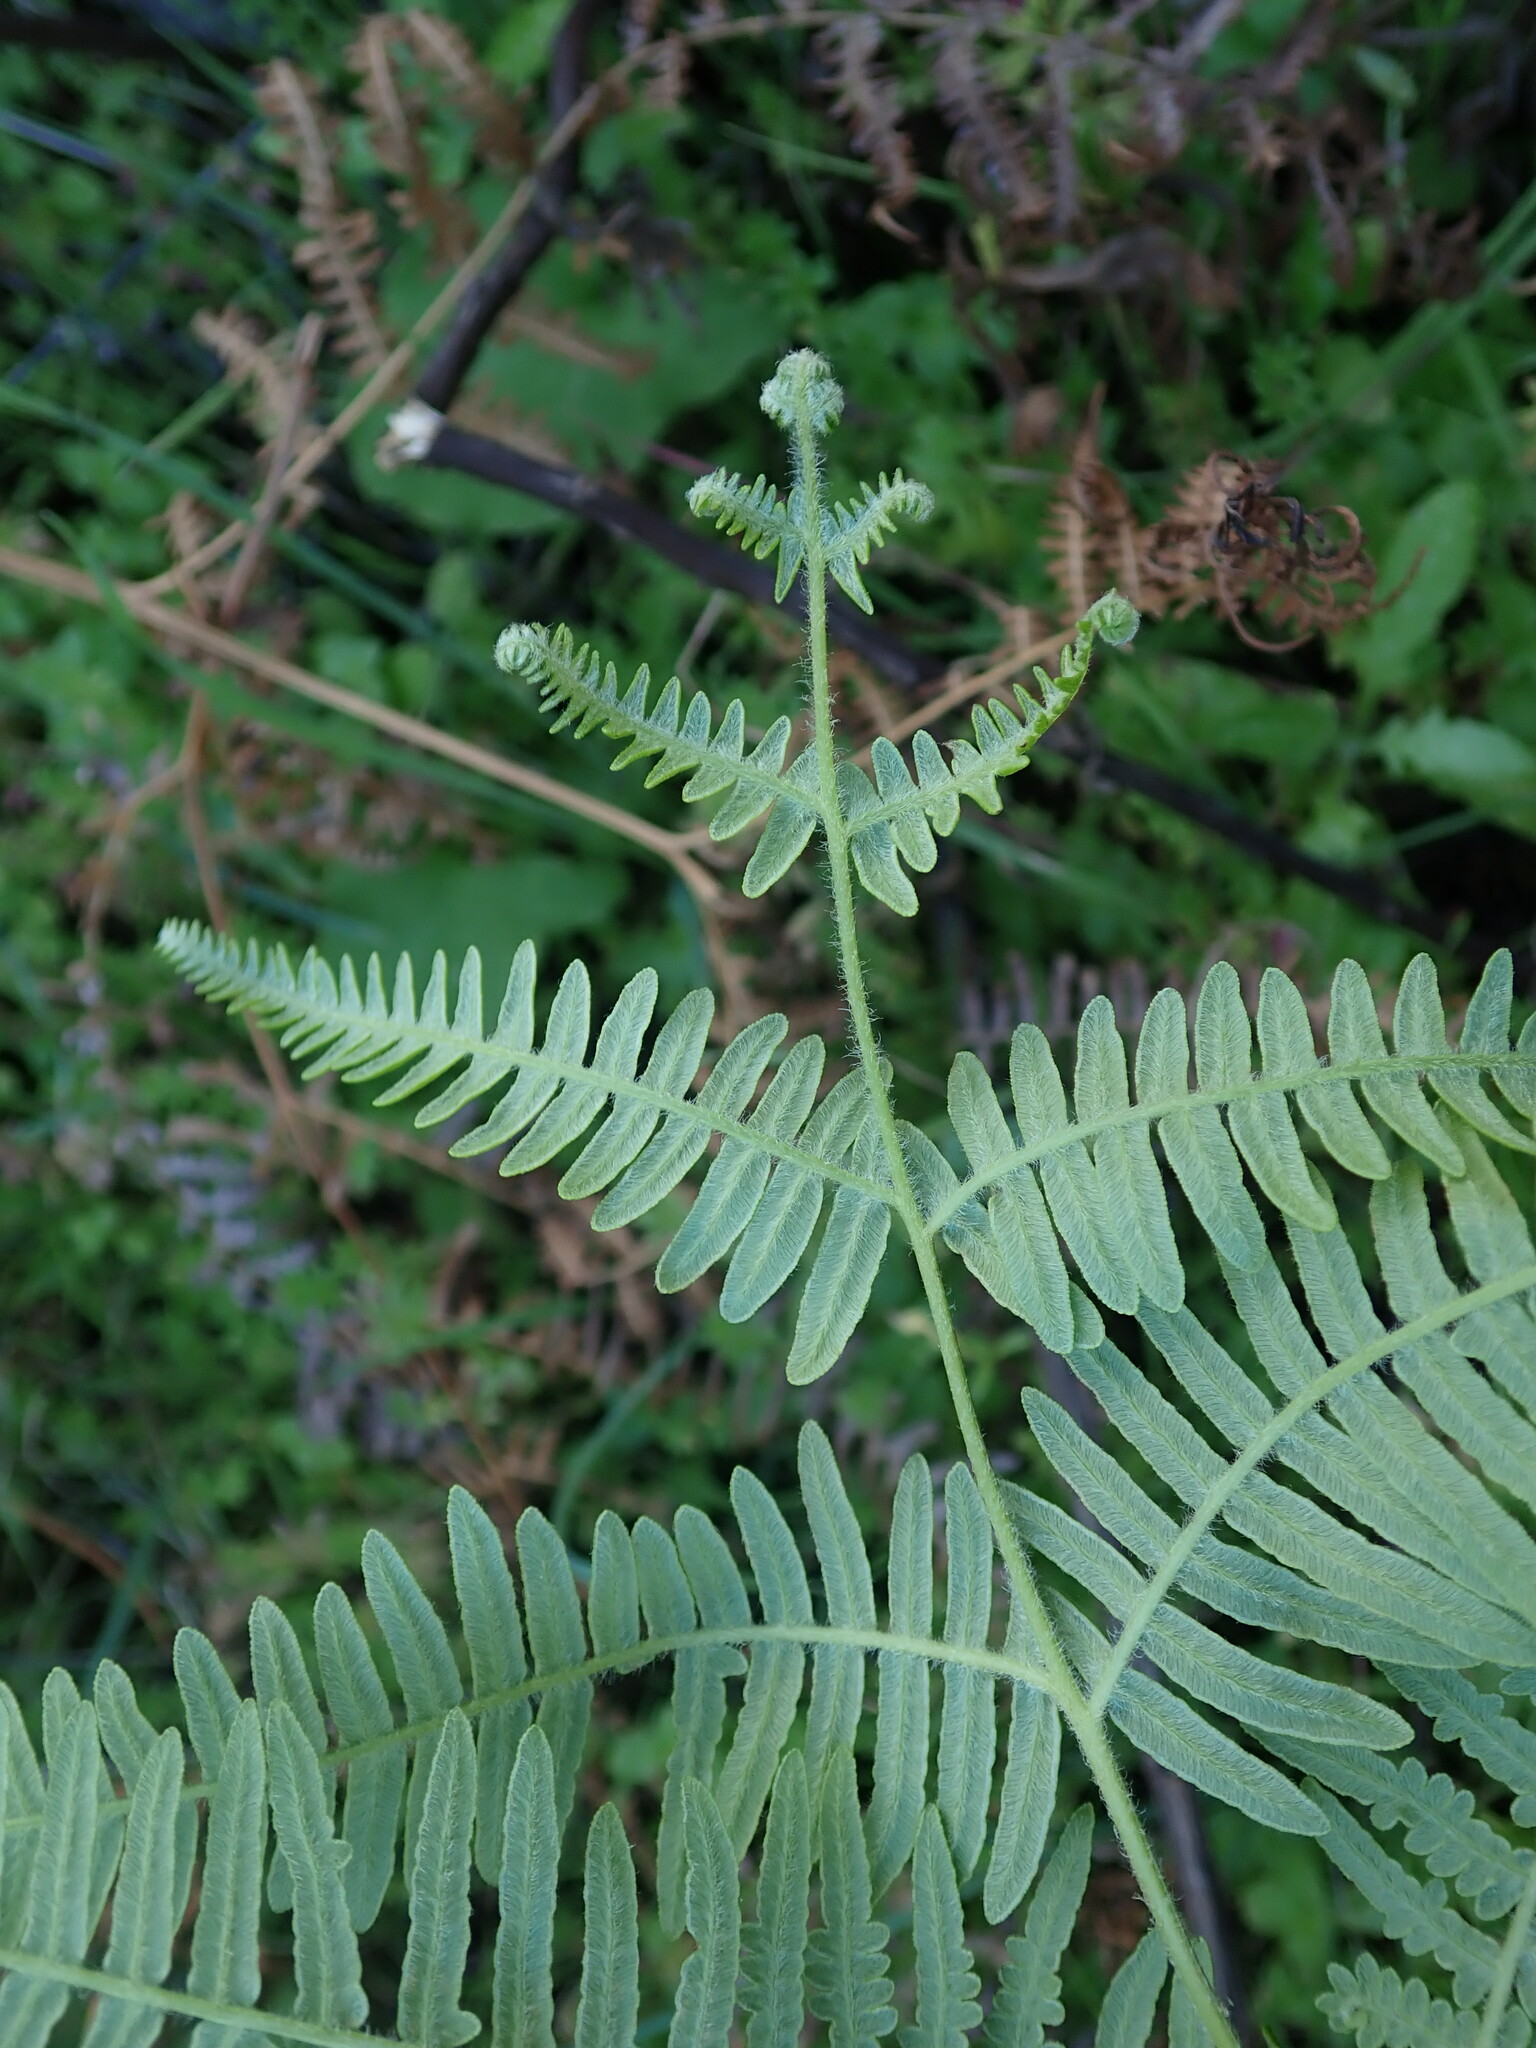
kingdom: Plantae
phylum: Tracheophyta
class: Polypodiopsida
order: Polypodiales
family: Dennstaedtiaceae
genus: Pteridium
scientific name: Pteridium aquilinum
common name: Bracken
